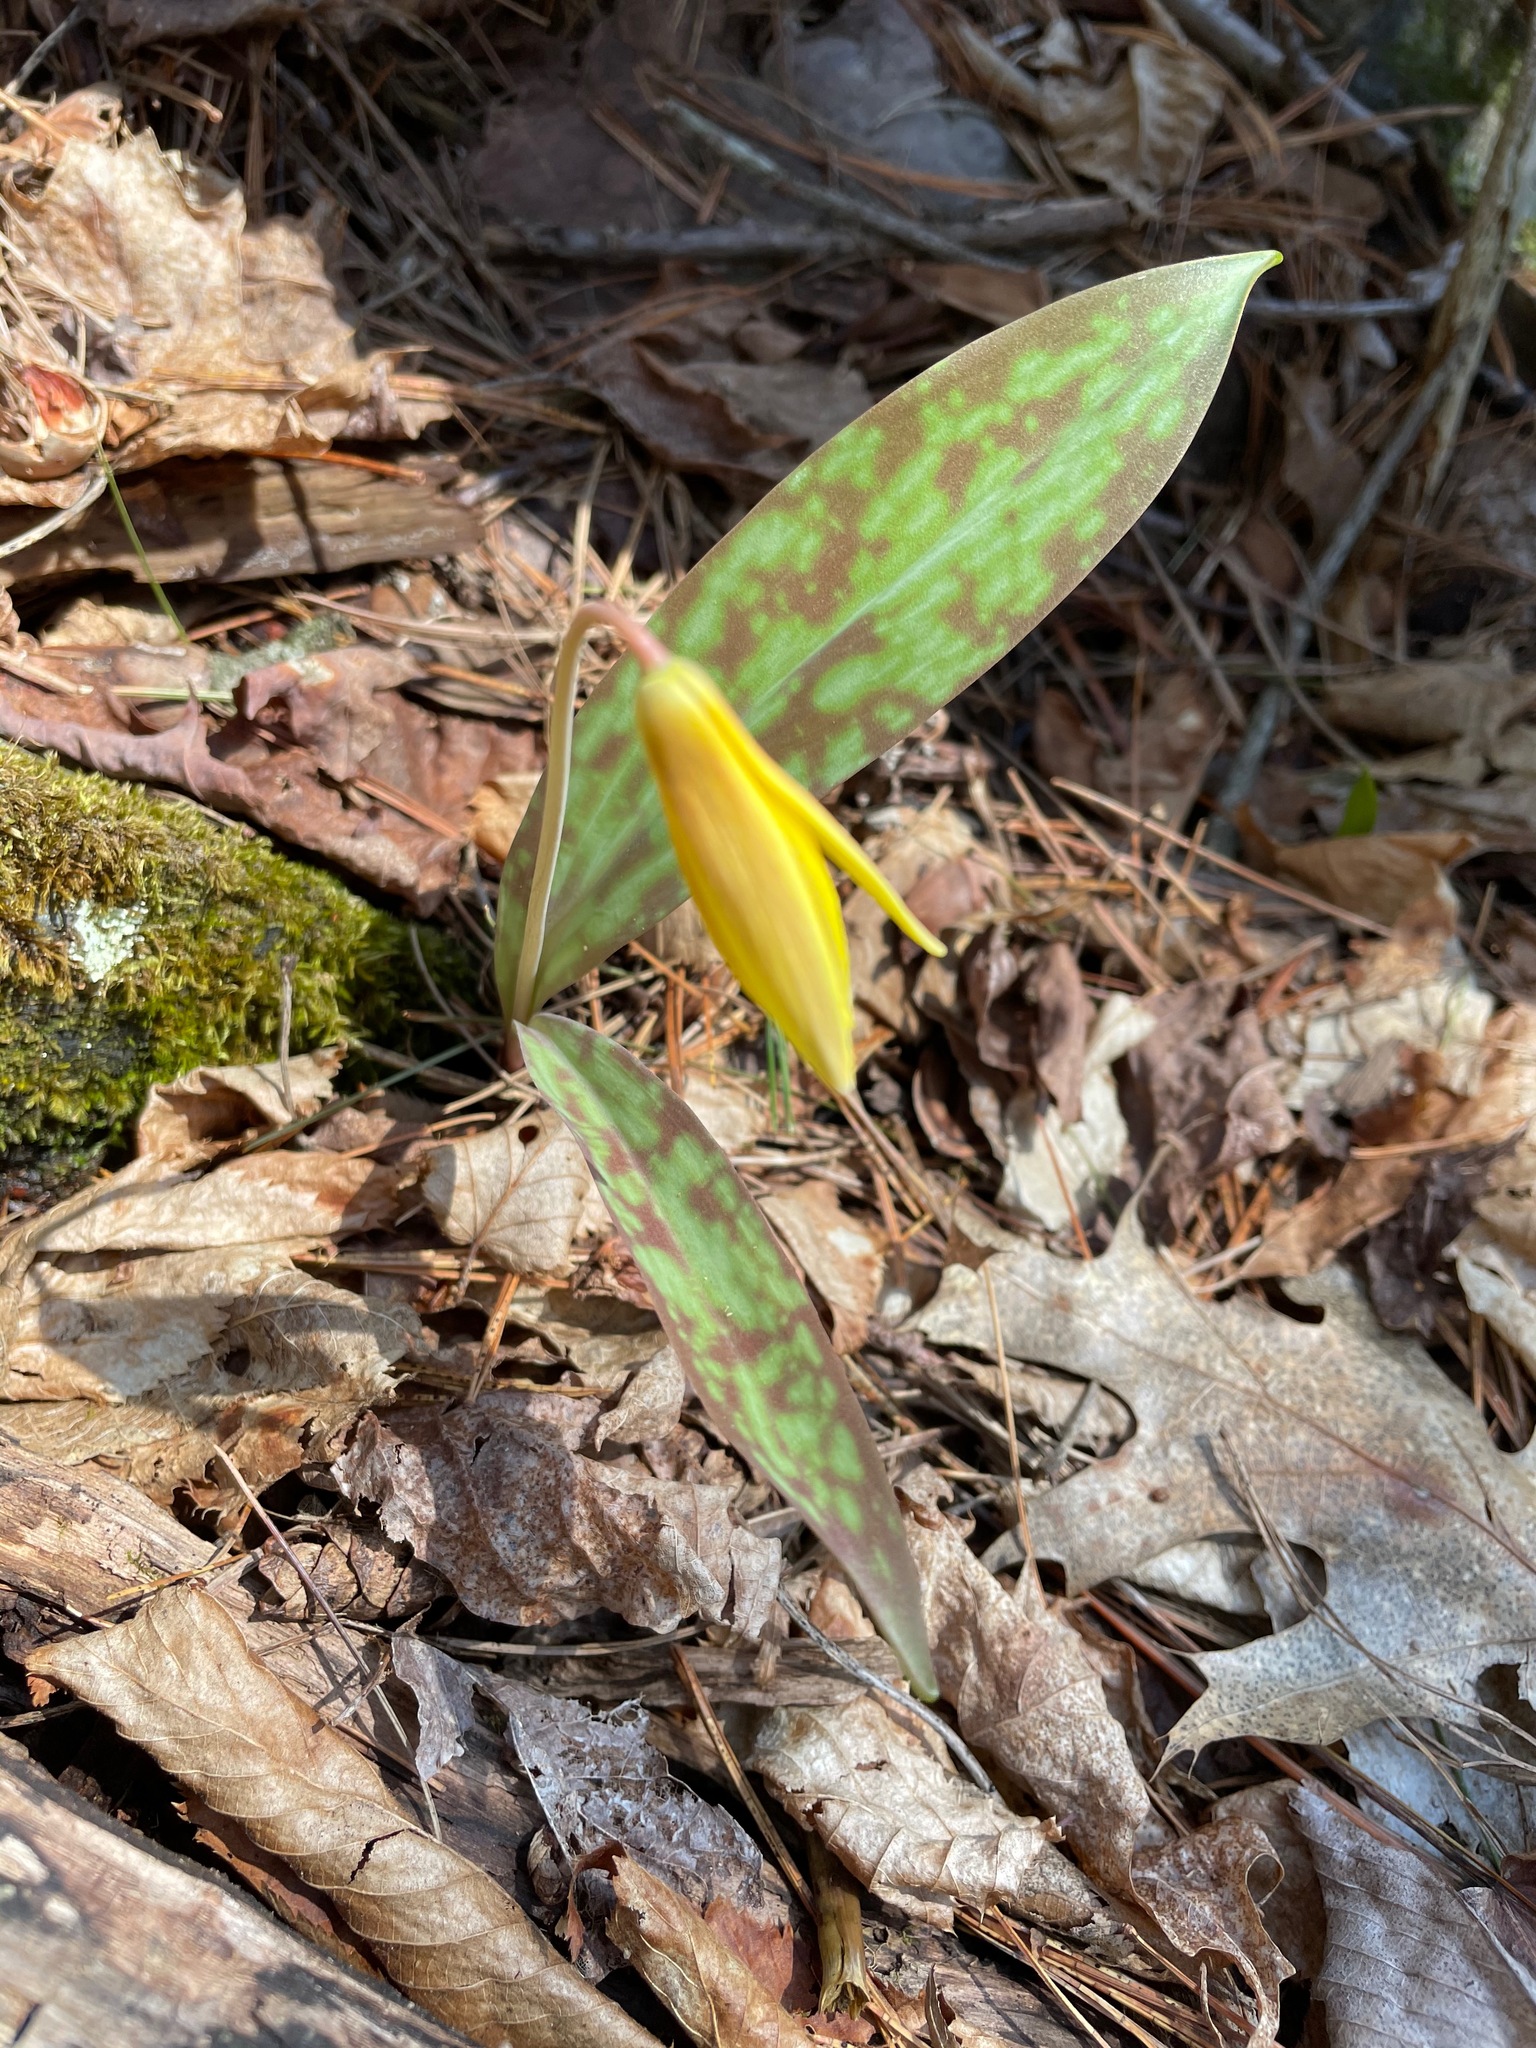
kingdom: Plantae
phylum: Tracheophyta
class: Liliopsida
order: Liliales
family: Liliaceae
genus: Erythronium
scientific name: Erythronium americanum
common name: Yellow adder's-tongue
